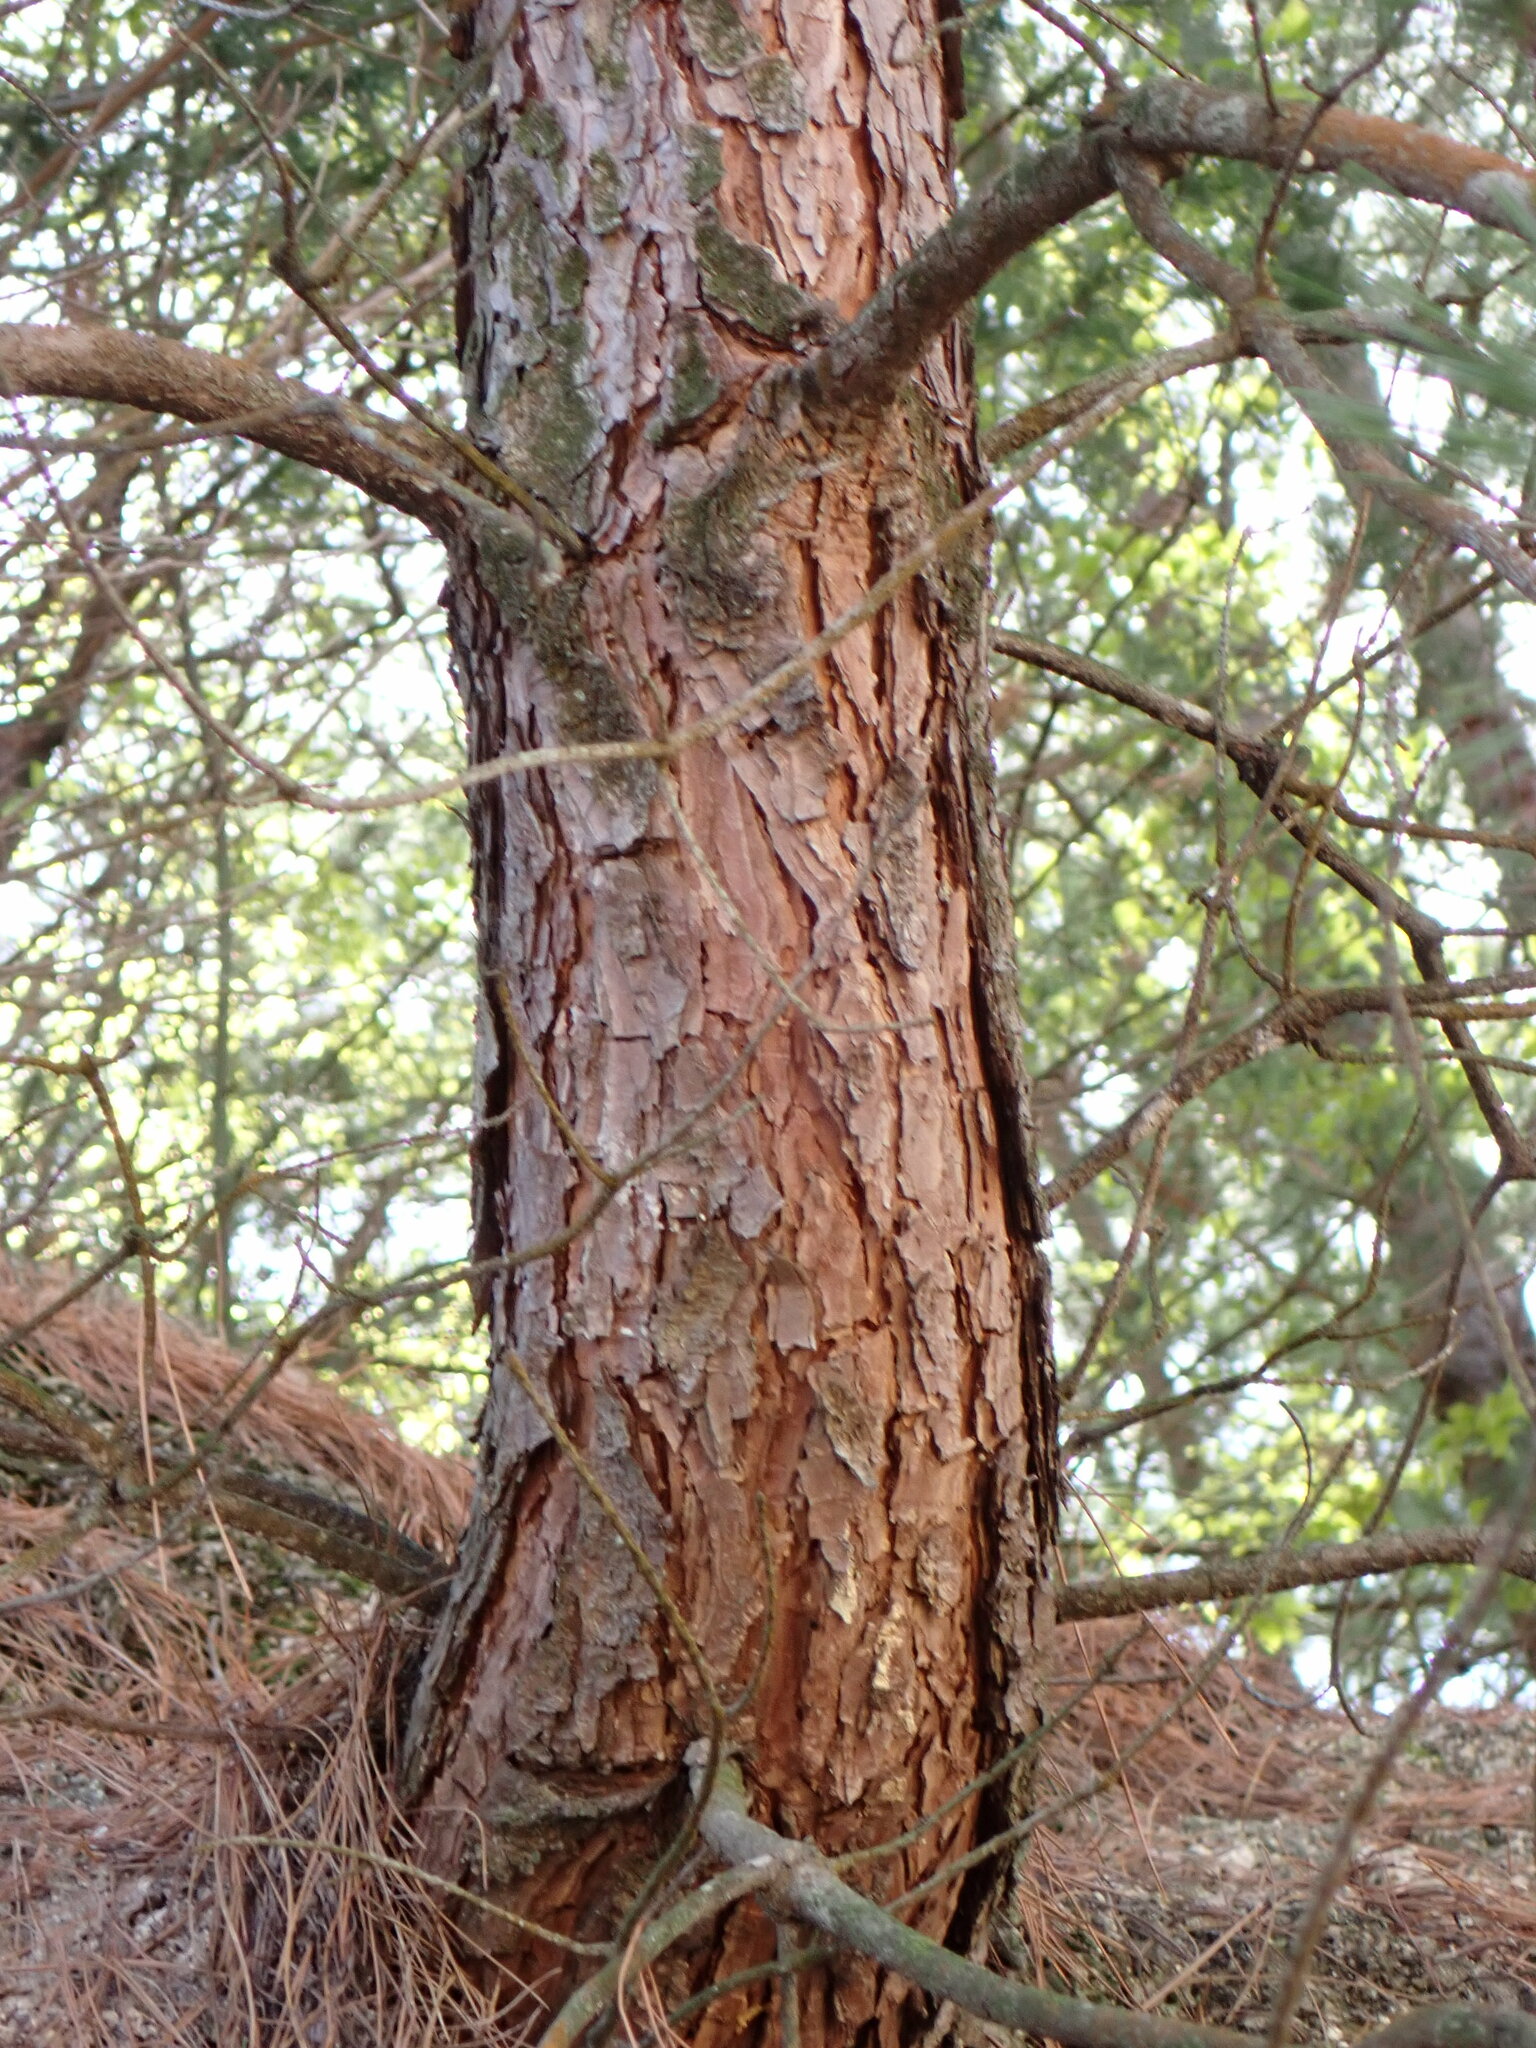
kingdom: Plantae
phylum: Tracheophyta
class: Pinopsida
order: Pinales
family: Pinaceae
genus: Pinus
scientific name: Pinus densiflora
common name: Japanese red pine
